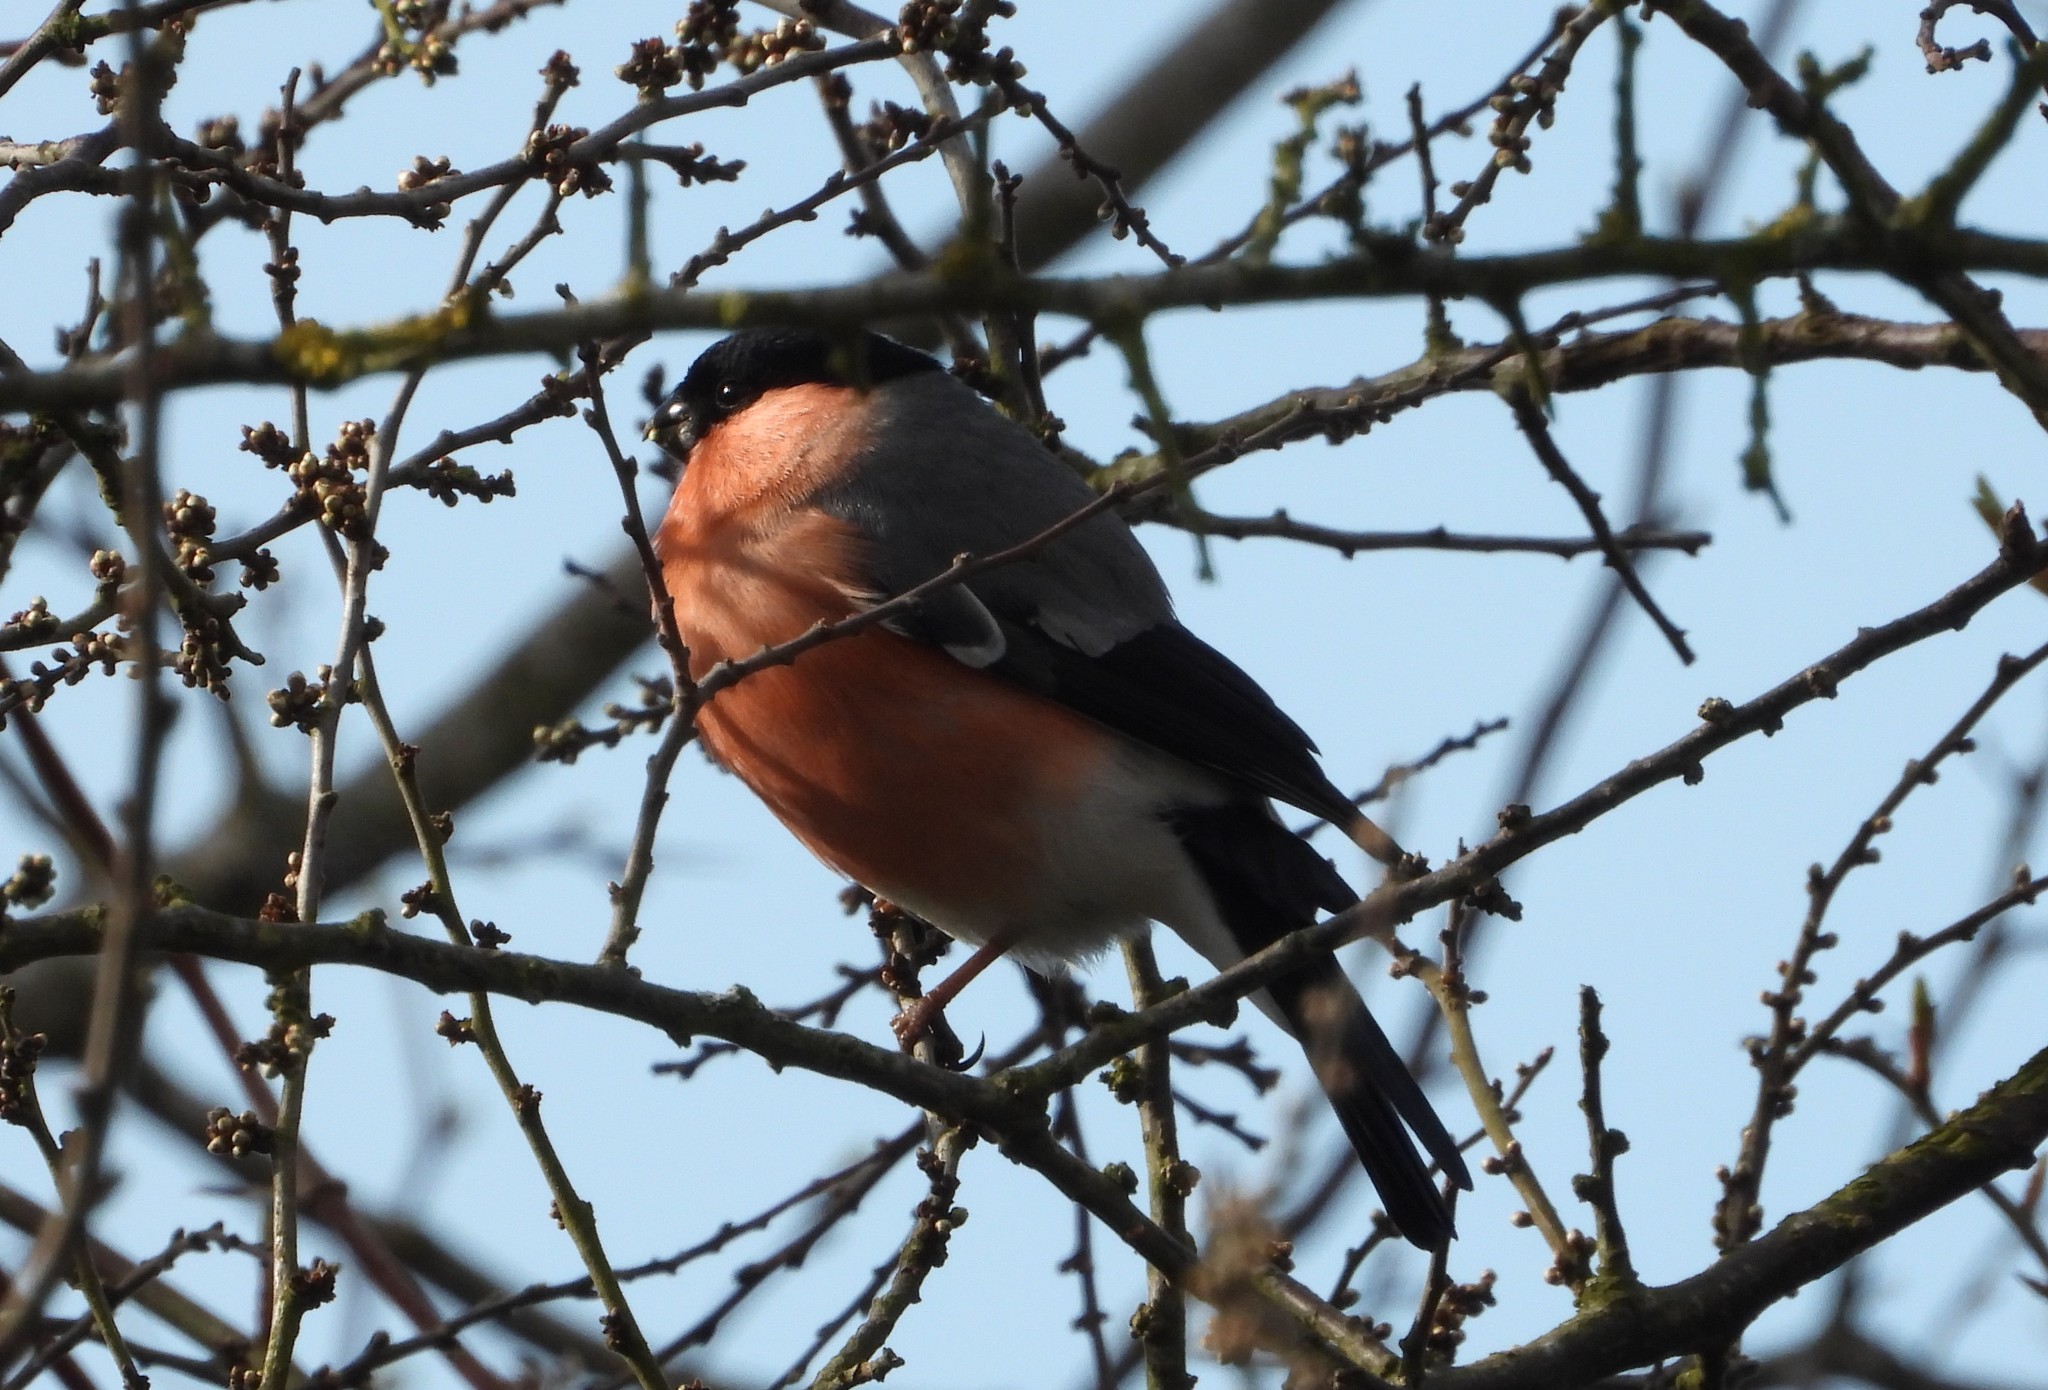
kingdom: Animalia
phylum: Chordata
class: Aves
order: Passeriformes
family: Fringillidae
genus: Pyrrhula
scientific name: Pyrrhula pyrrhula
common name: Eurasian bullfinch
